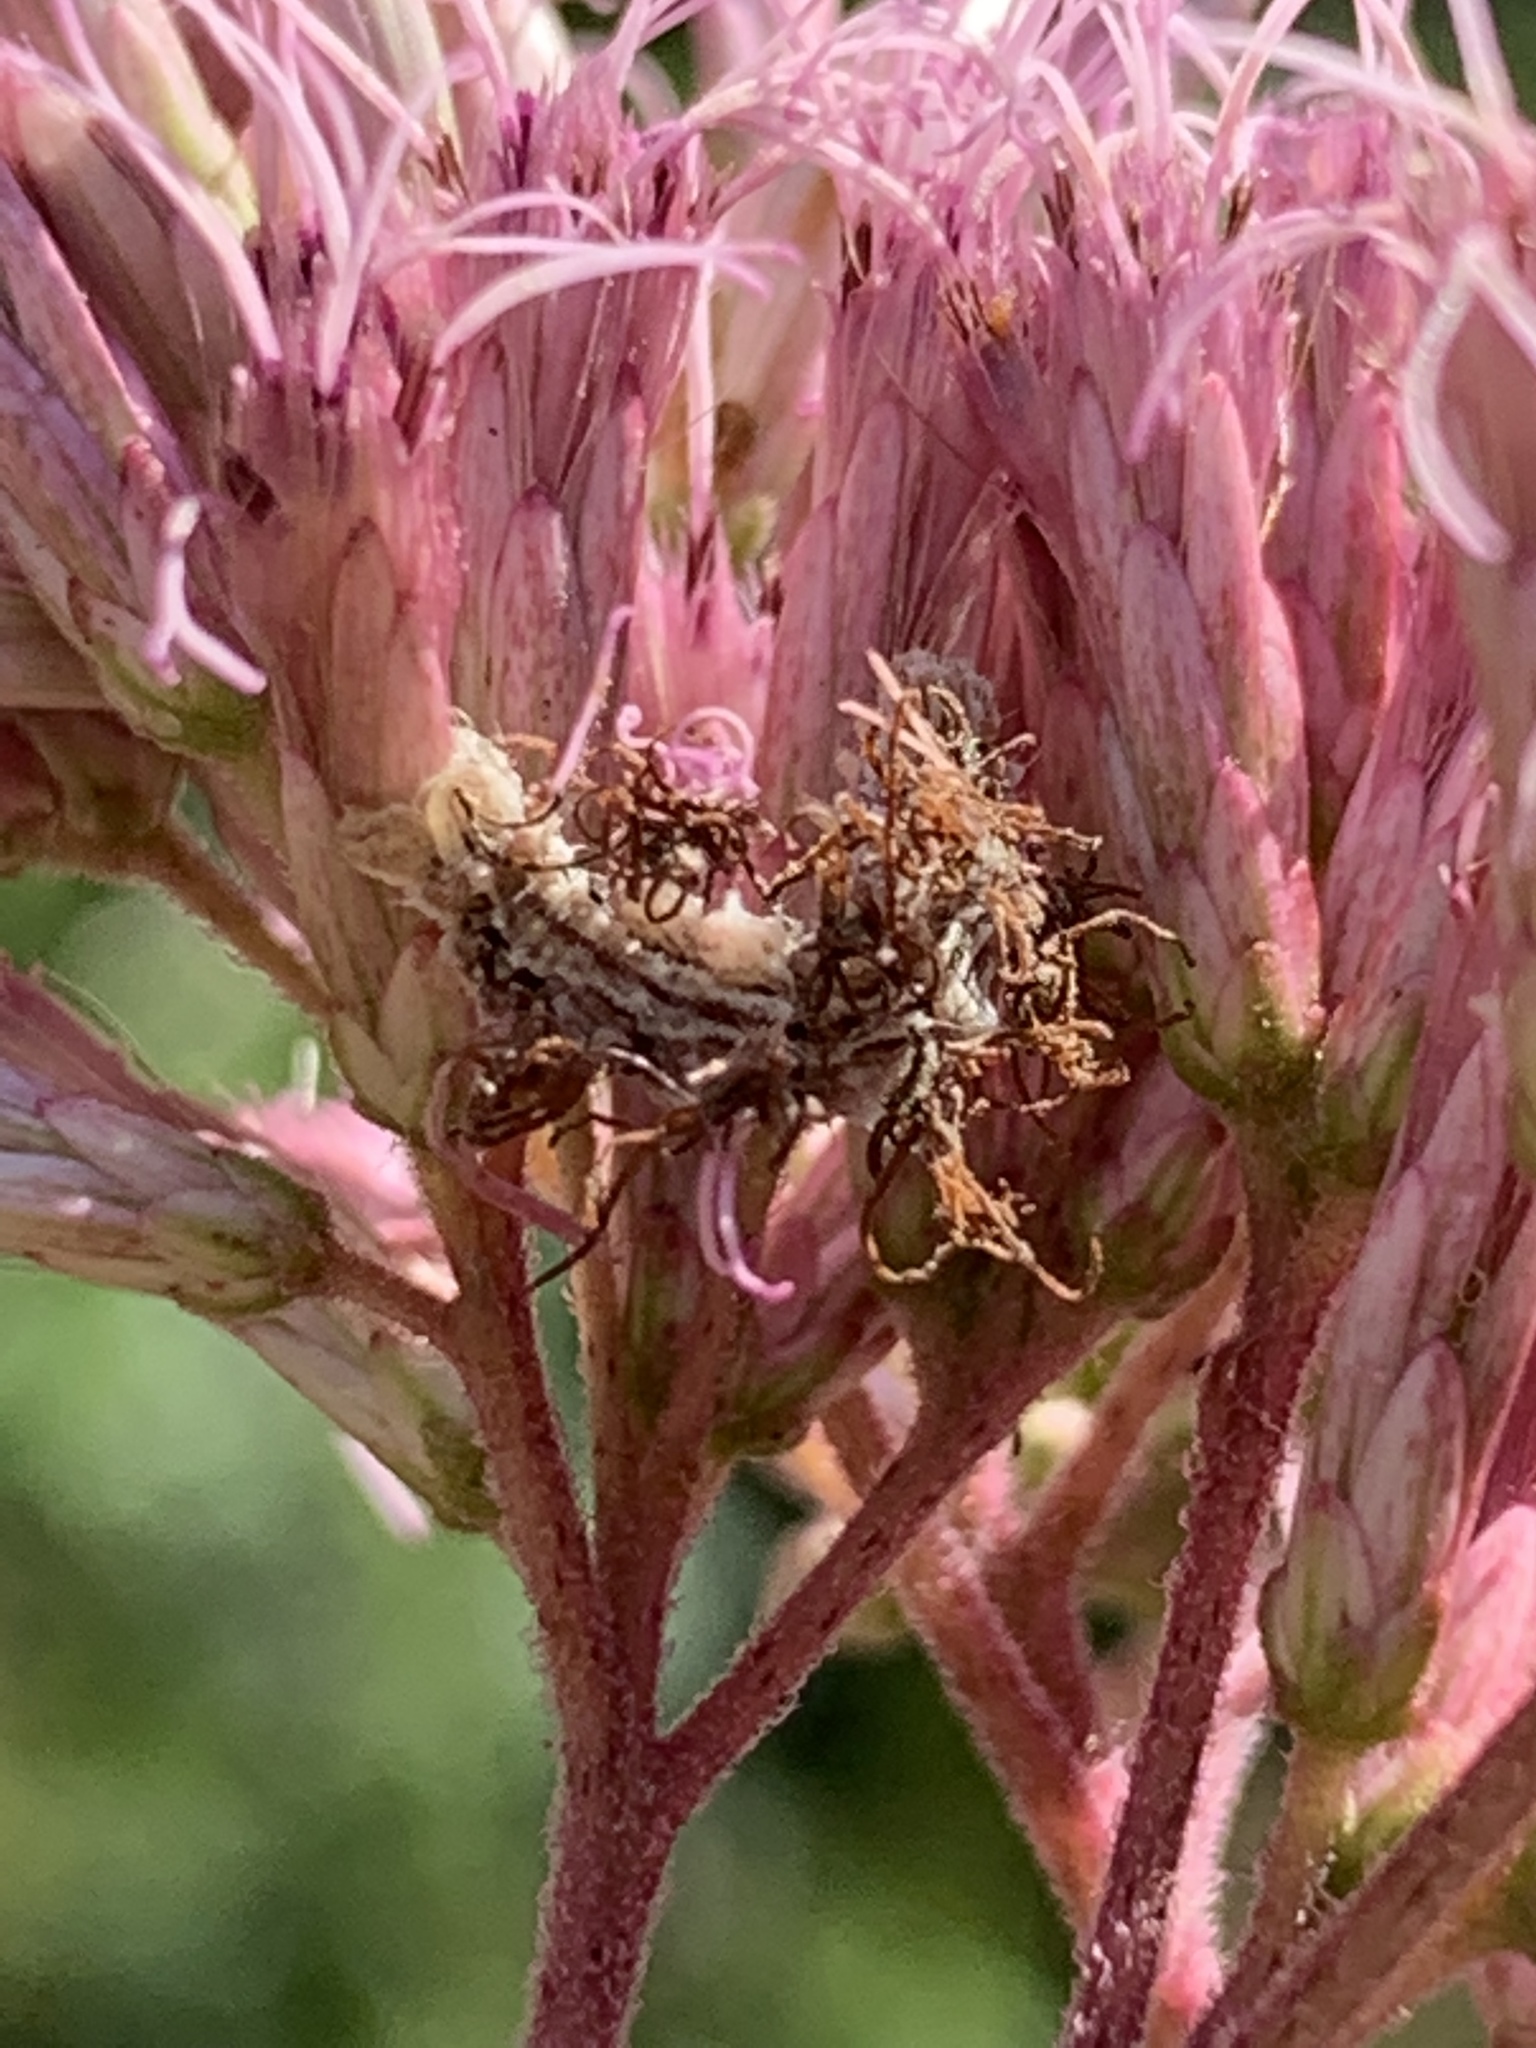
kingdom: Animalia
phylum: Arthropoda
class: Insecta
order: Lepidoptera
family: Geometridae
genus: Synchlora
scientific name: Synchlora aerata
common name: Wavy-lined emerald
